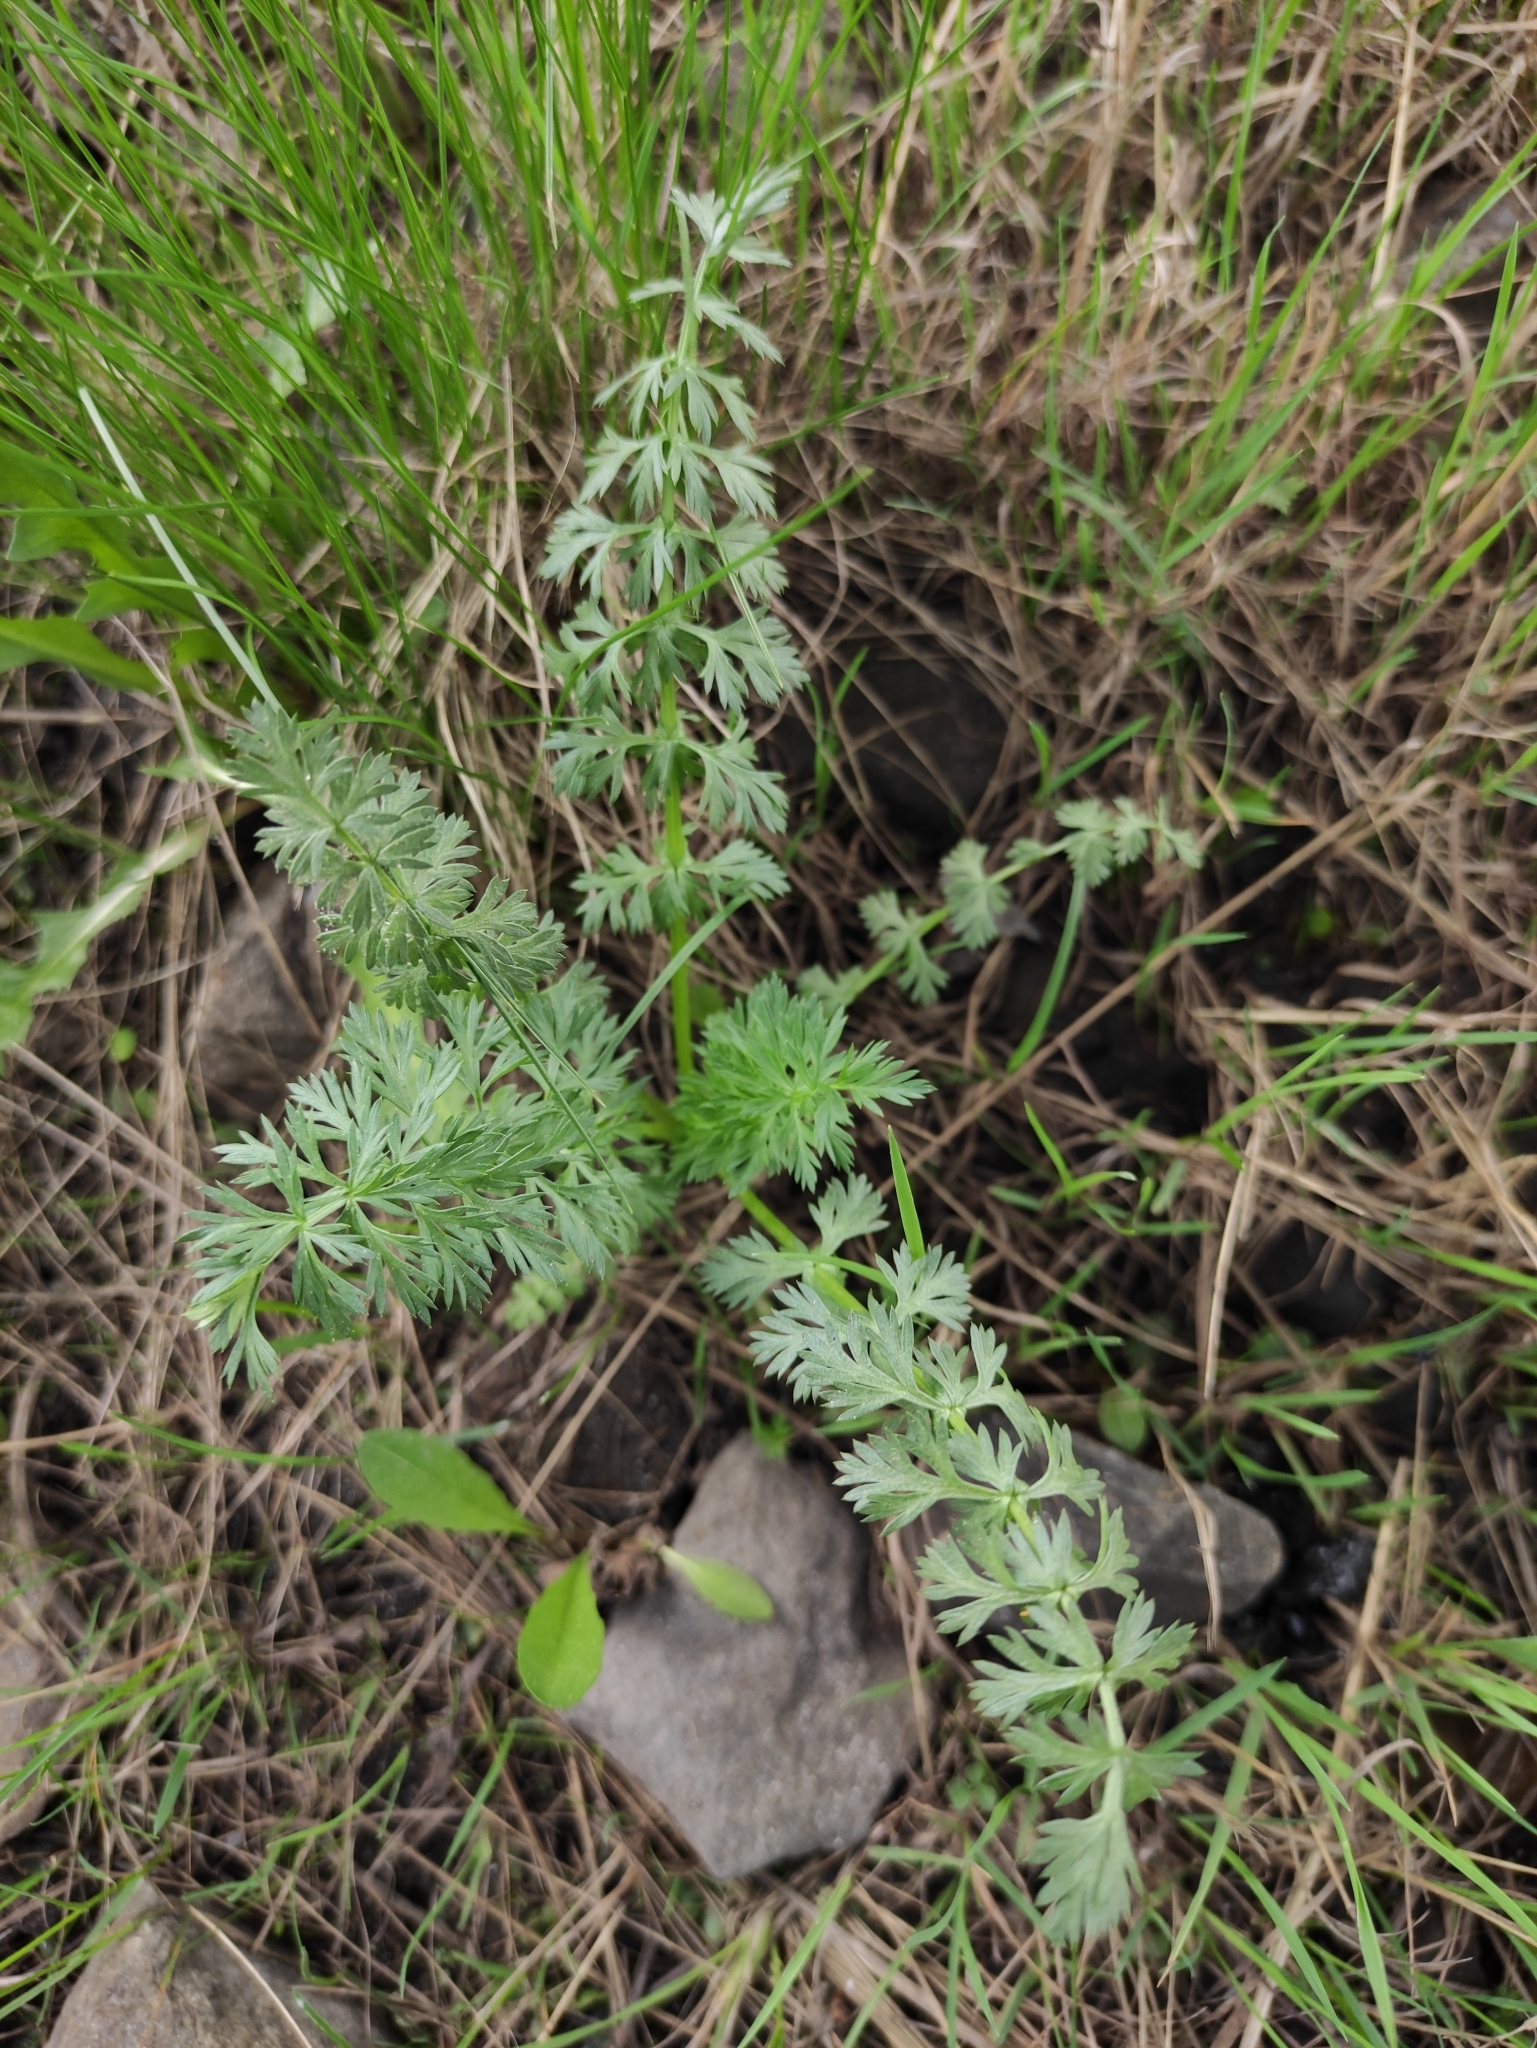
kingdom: Plantae
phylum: Tracheophyta
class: Magnoliopsida
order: Apiales
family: Apiaceae
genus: Carum
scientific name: Carum carvi
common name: Caraway
